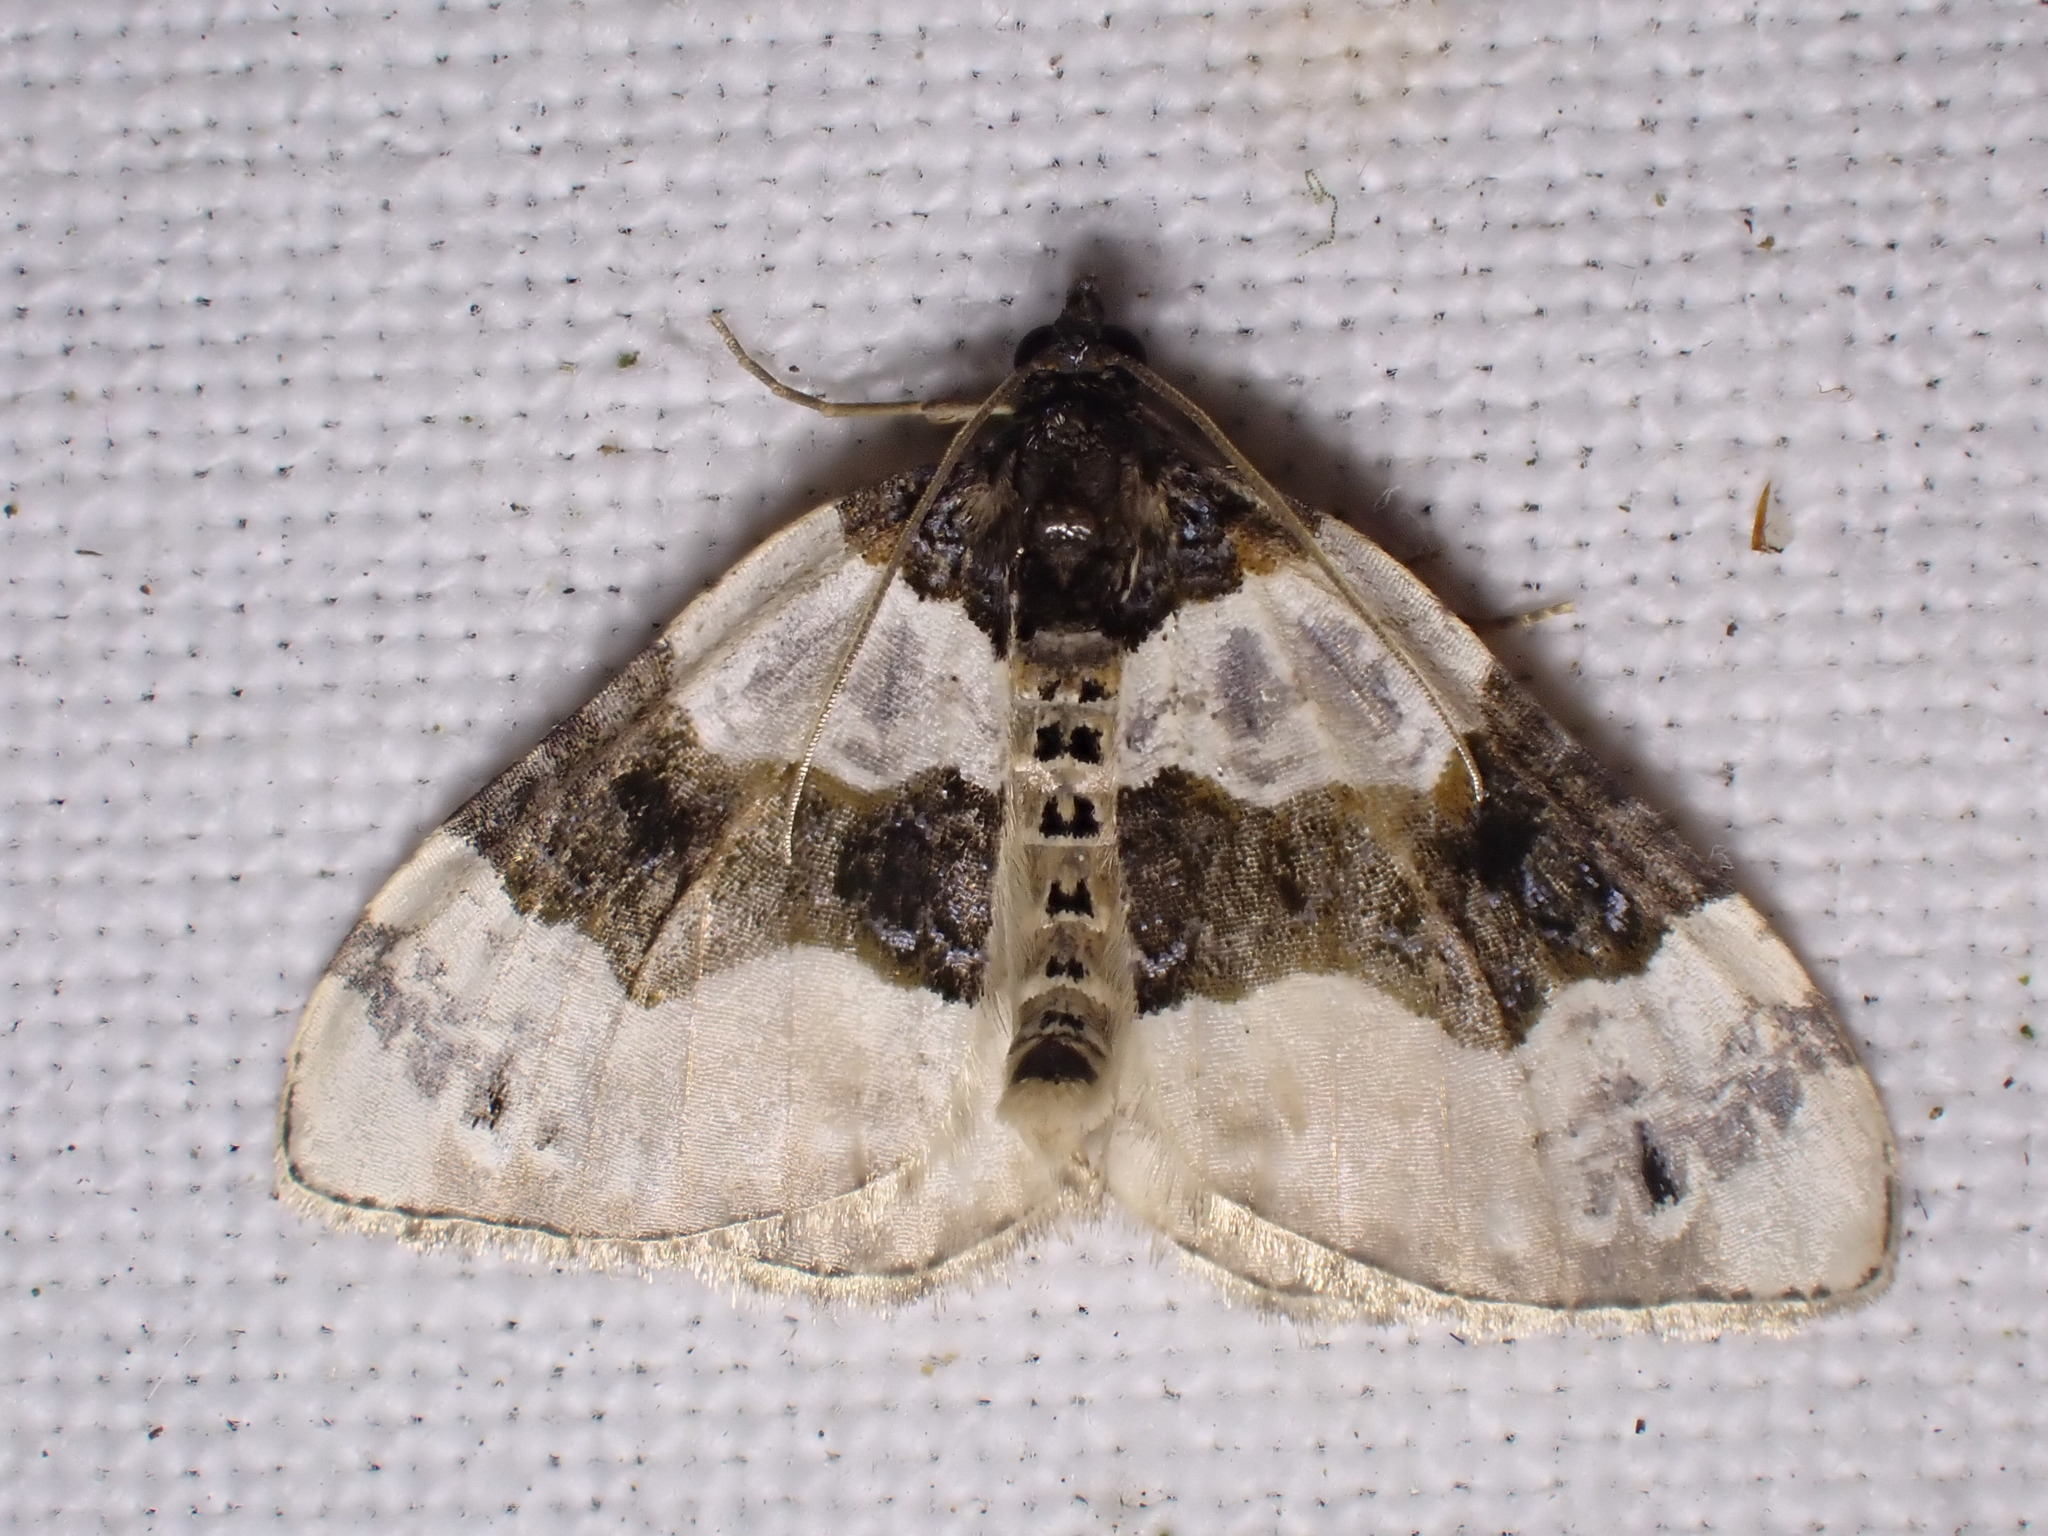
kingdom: Animalia
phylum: Arthropoda
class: Insecta
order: Lepidoptera
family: Geometridae
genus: Cosmorhoe
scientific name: Cosmorhoe ocellata
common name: Purple bar
